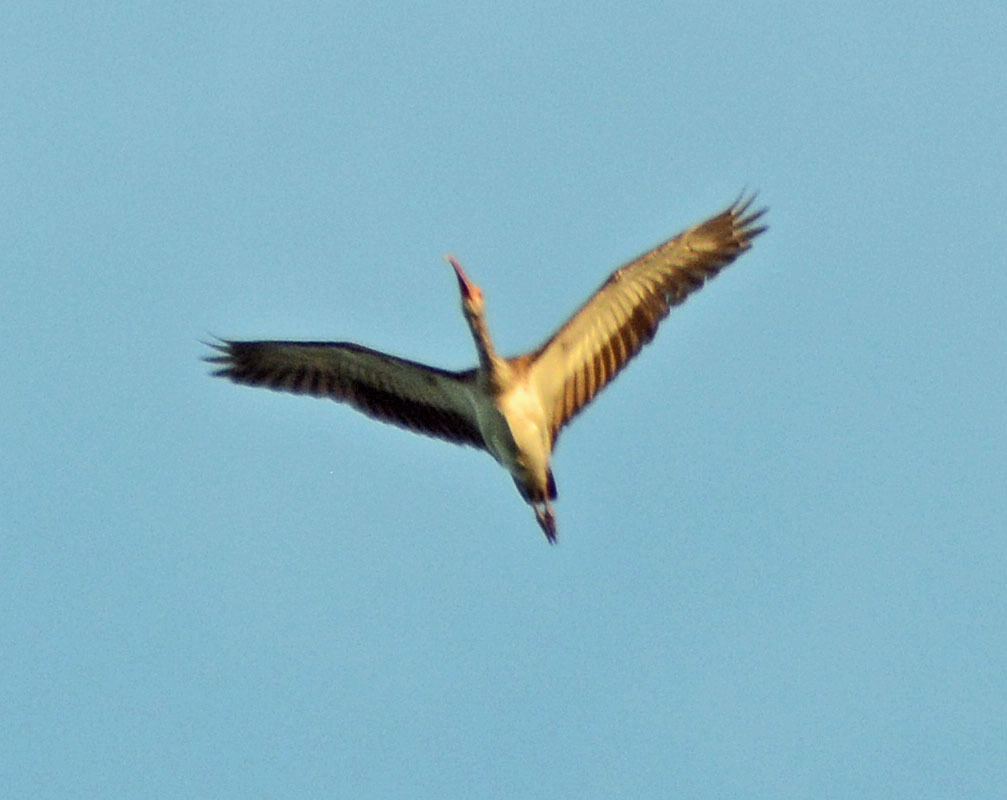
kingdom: Animalia
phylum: Chordata
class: Aves
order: Pelecaniformes
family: Threskiornithidae
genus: Eudocimus
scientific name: Eudocimus albus
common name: White ibis
